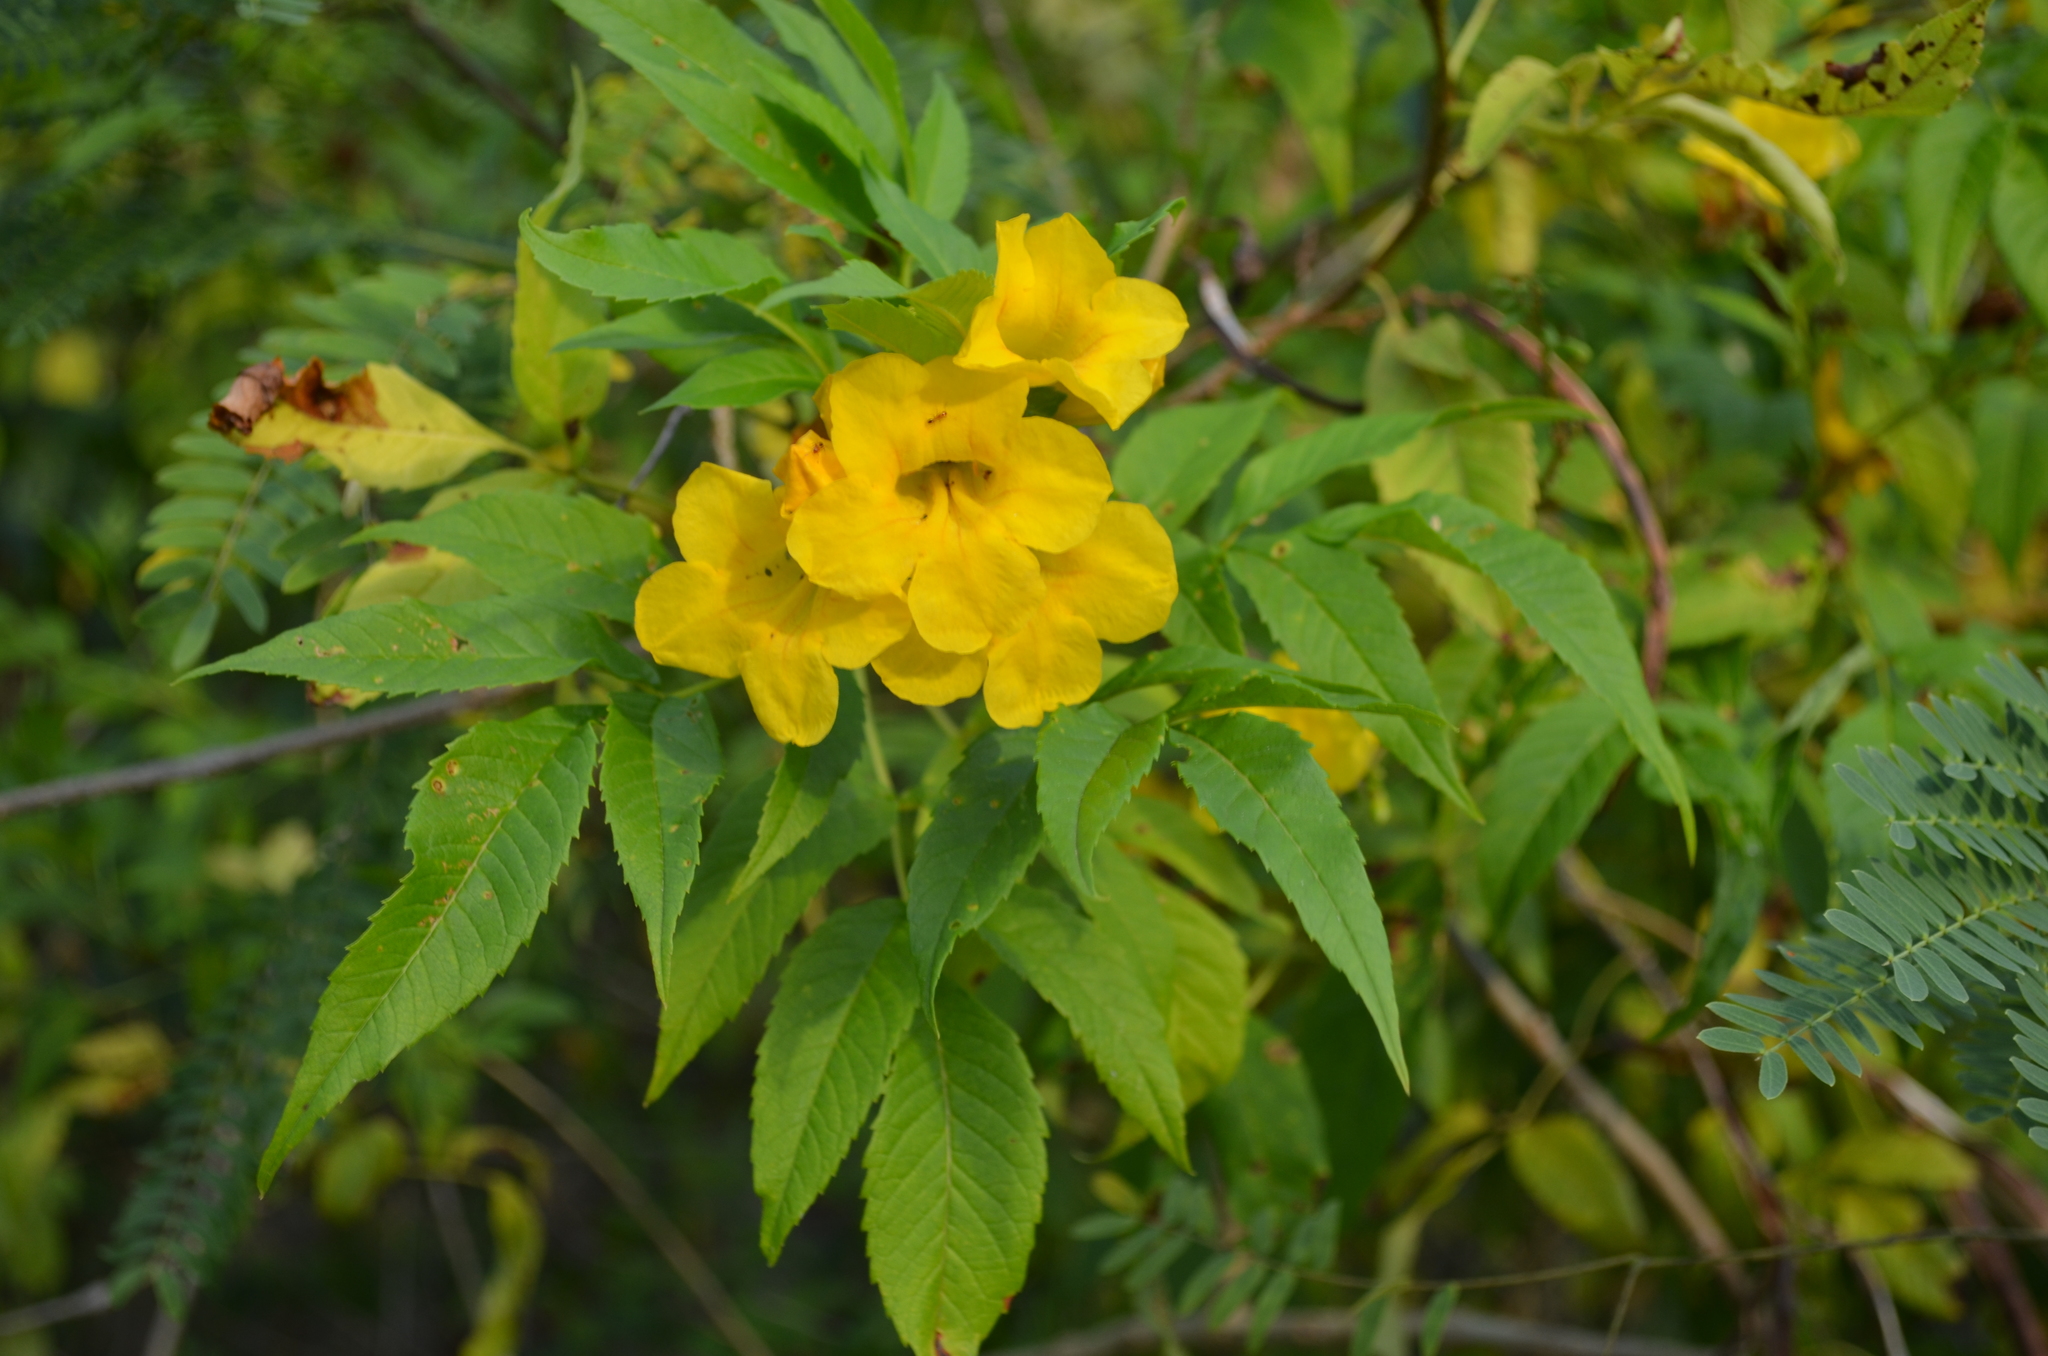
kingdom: Plantae
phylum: Tracheophyta
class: Magnoliopsida
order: Lamiales
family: Bignoniaceae
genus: Tecoma
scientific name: Tecoma stans
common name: Yellow trumpetbush
